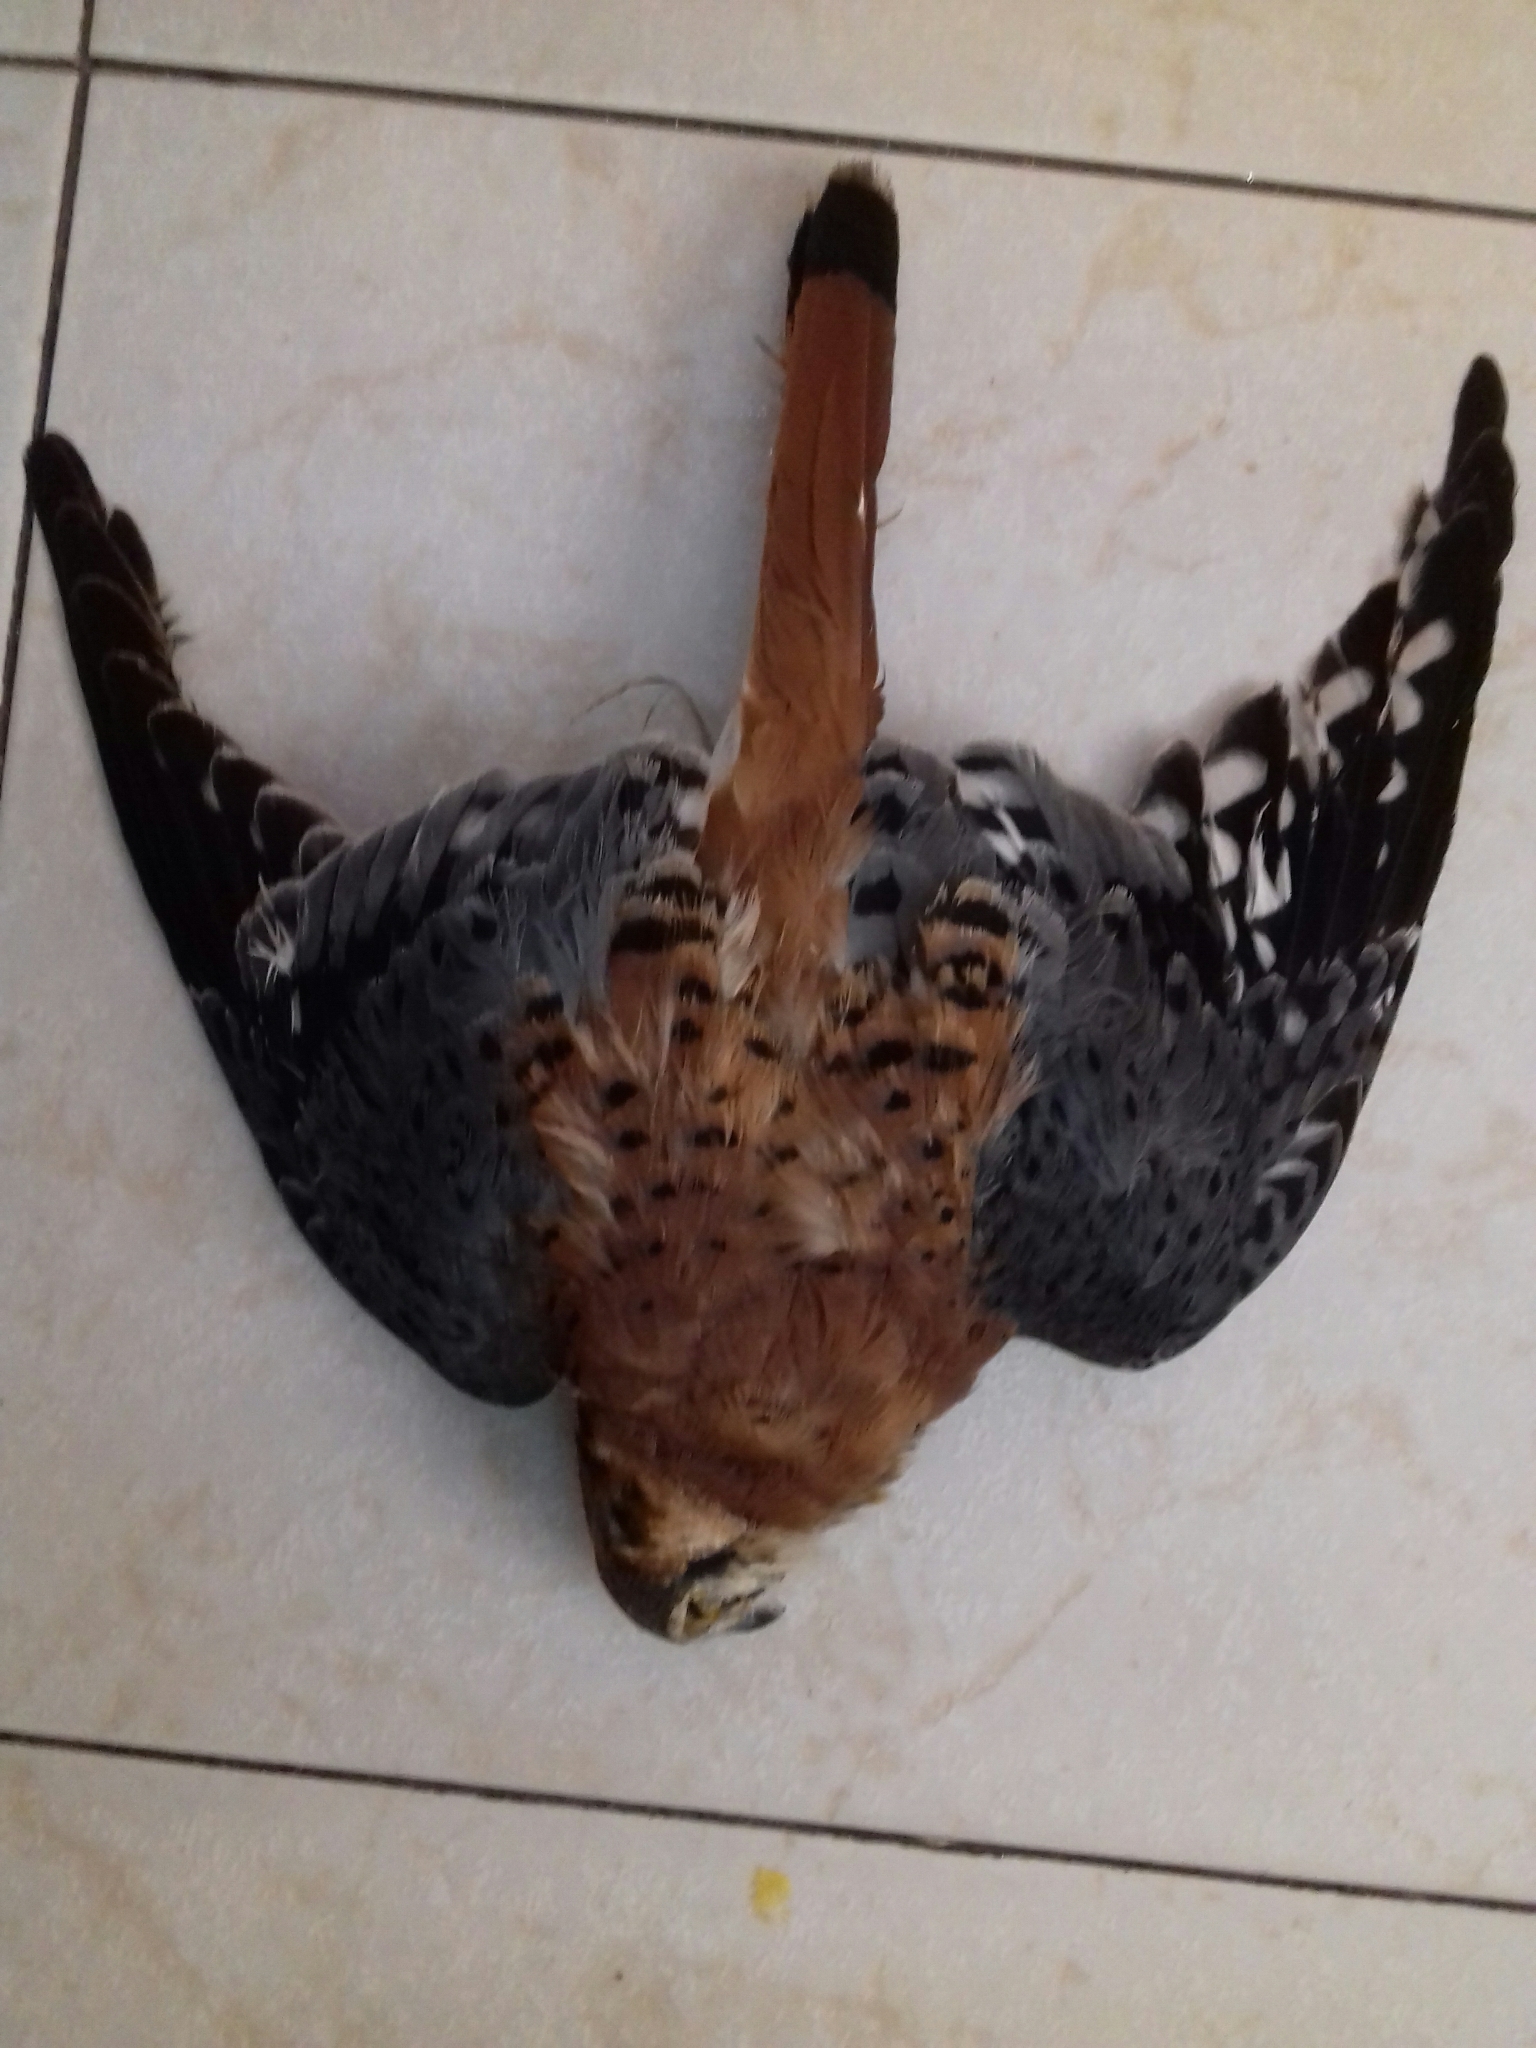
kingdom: Animalia
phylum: Chordata
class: Aves
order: Falconiformes
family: Falconidae
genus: Falco
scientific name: Falco sparverius
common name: American kestrel
